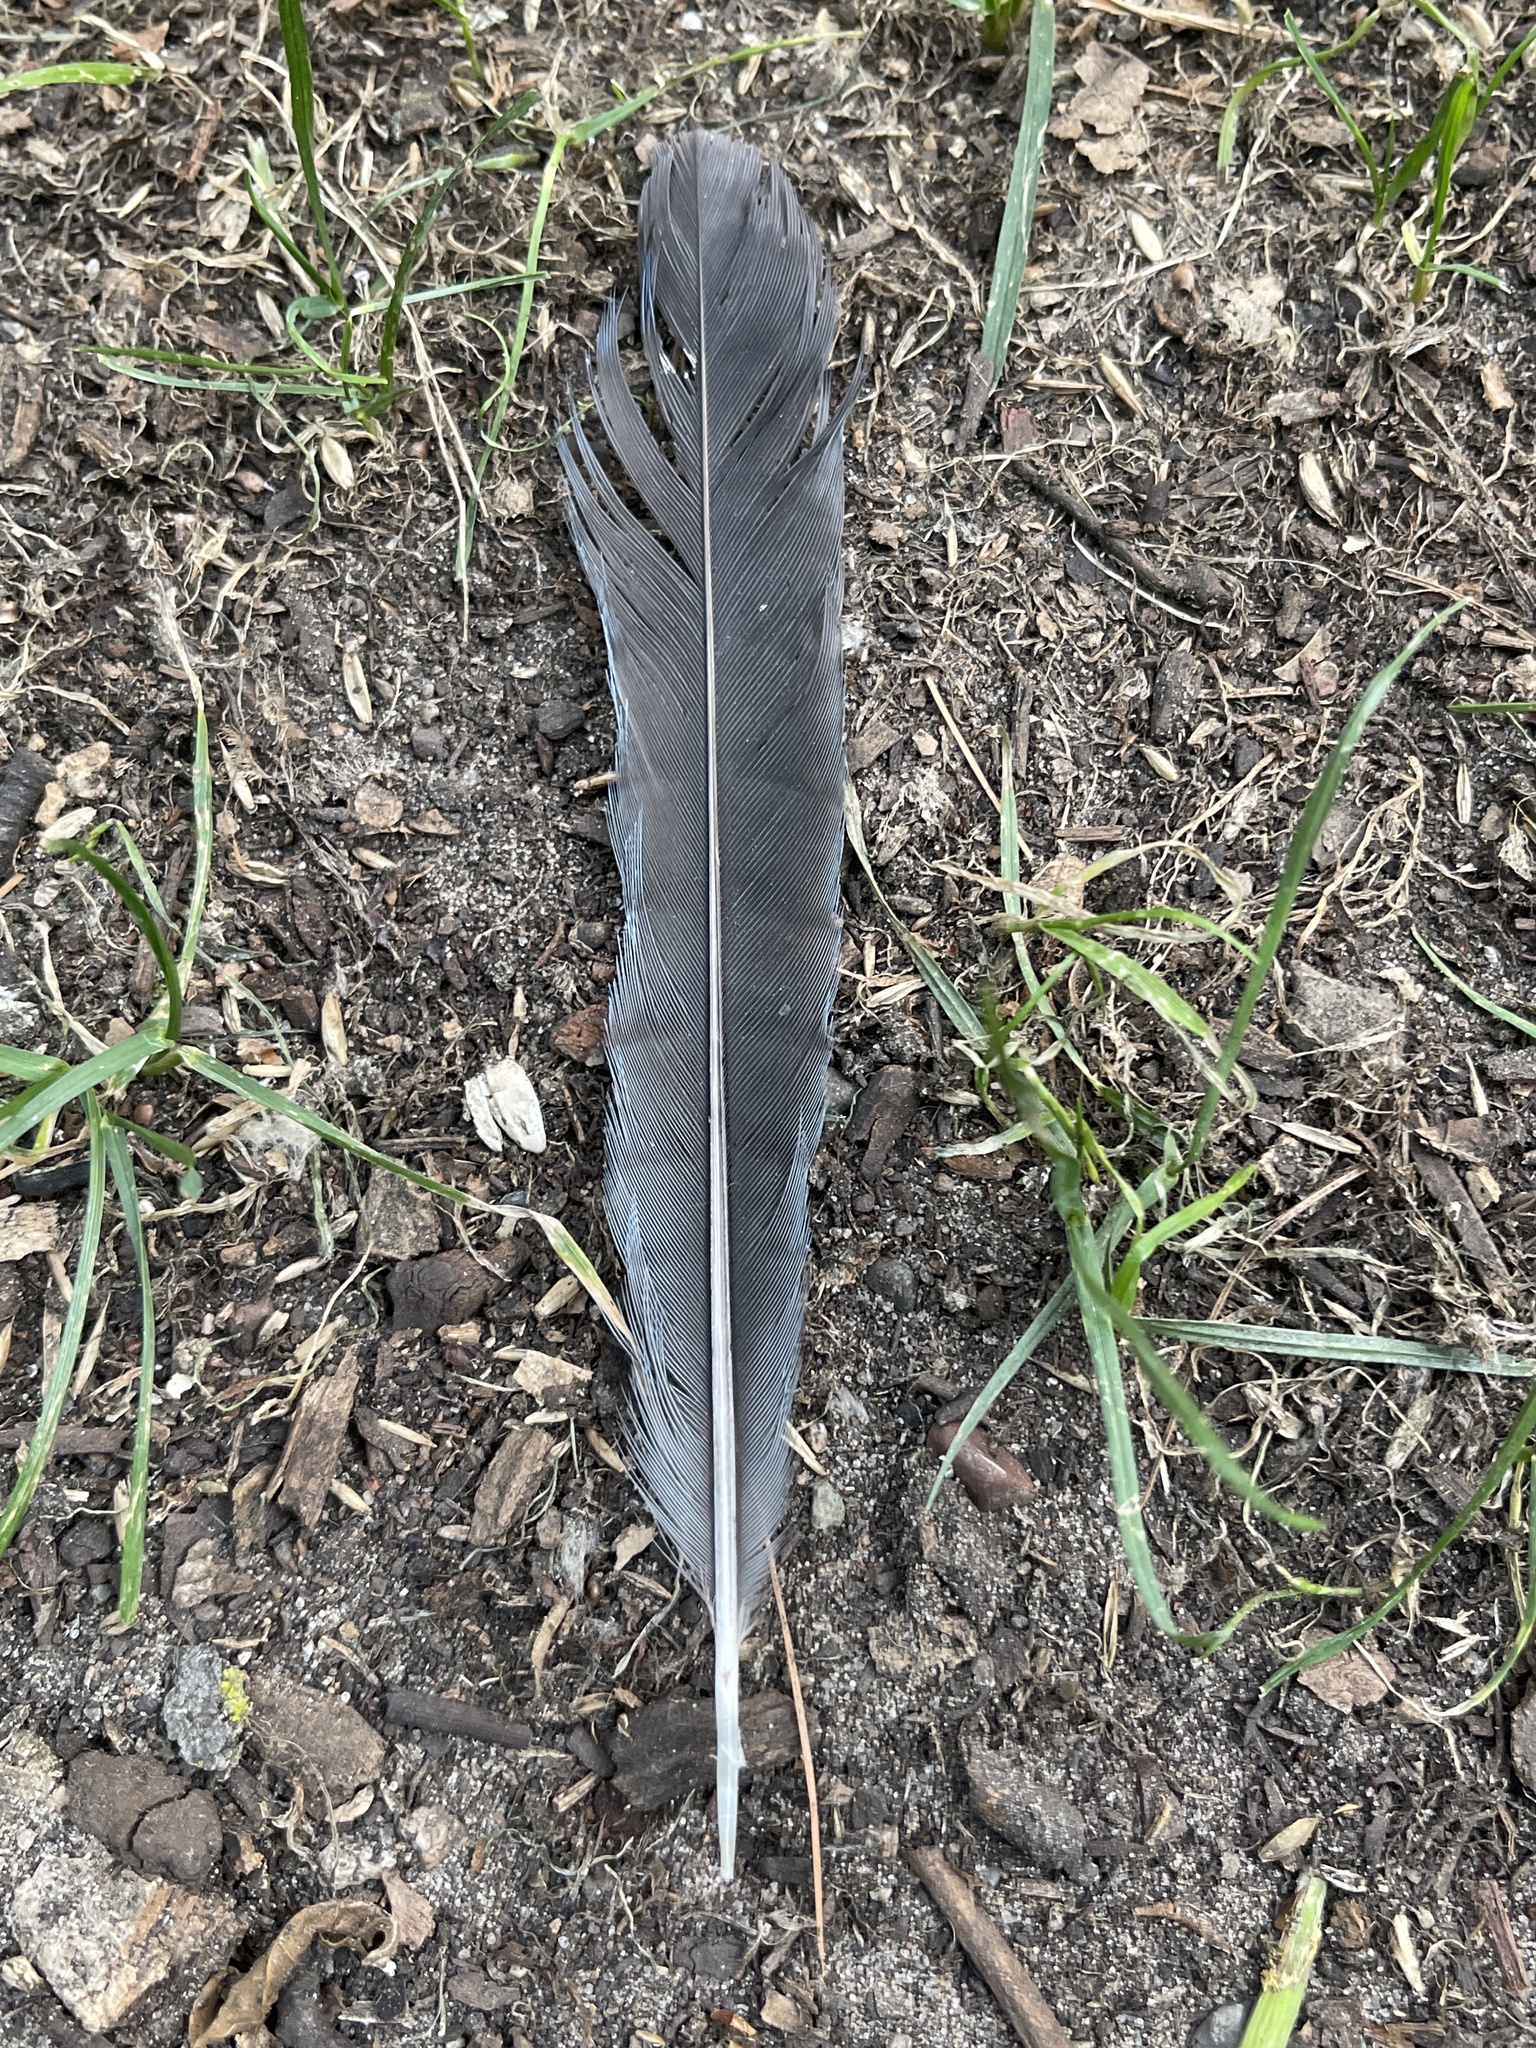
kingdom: Animalia
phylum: Chordata
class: Aves
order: Passeriformes
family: Corvidae
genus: Cyanocitta
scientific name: Cyanocitta cristata
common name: Blue jay
